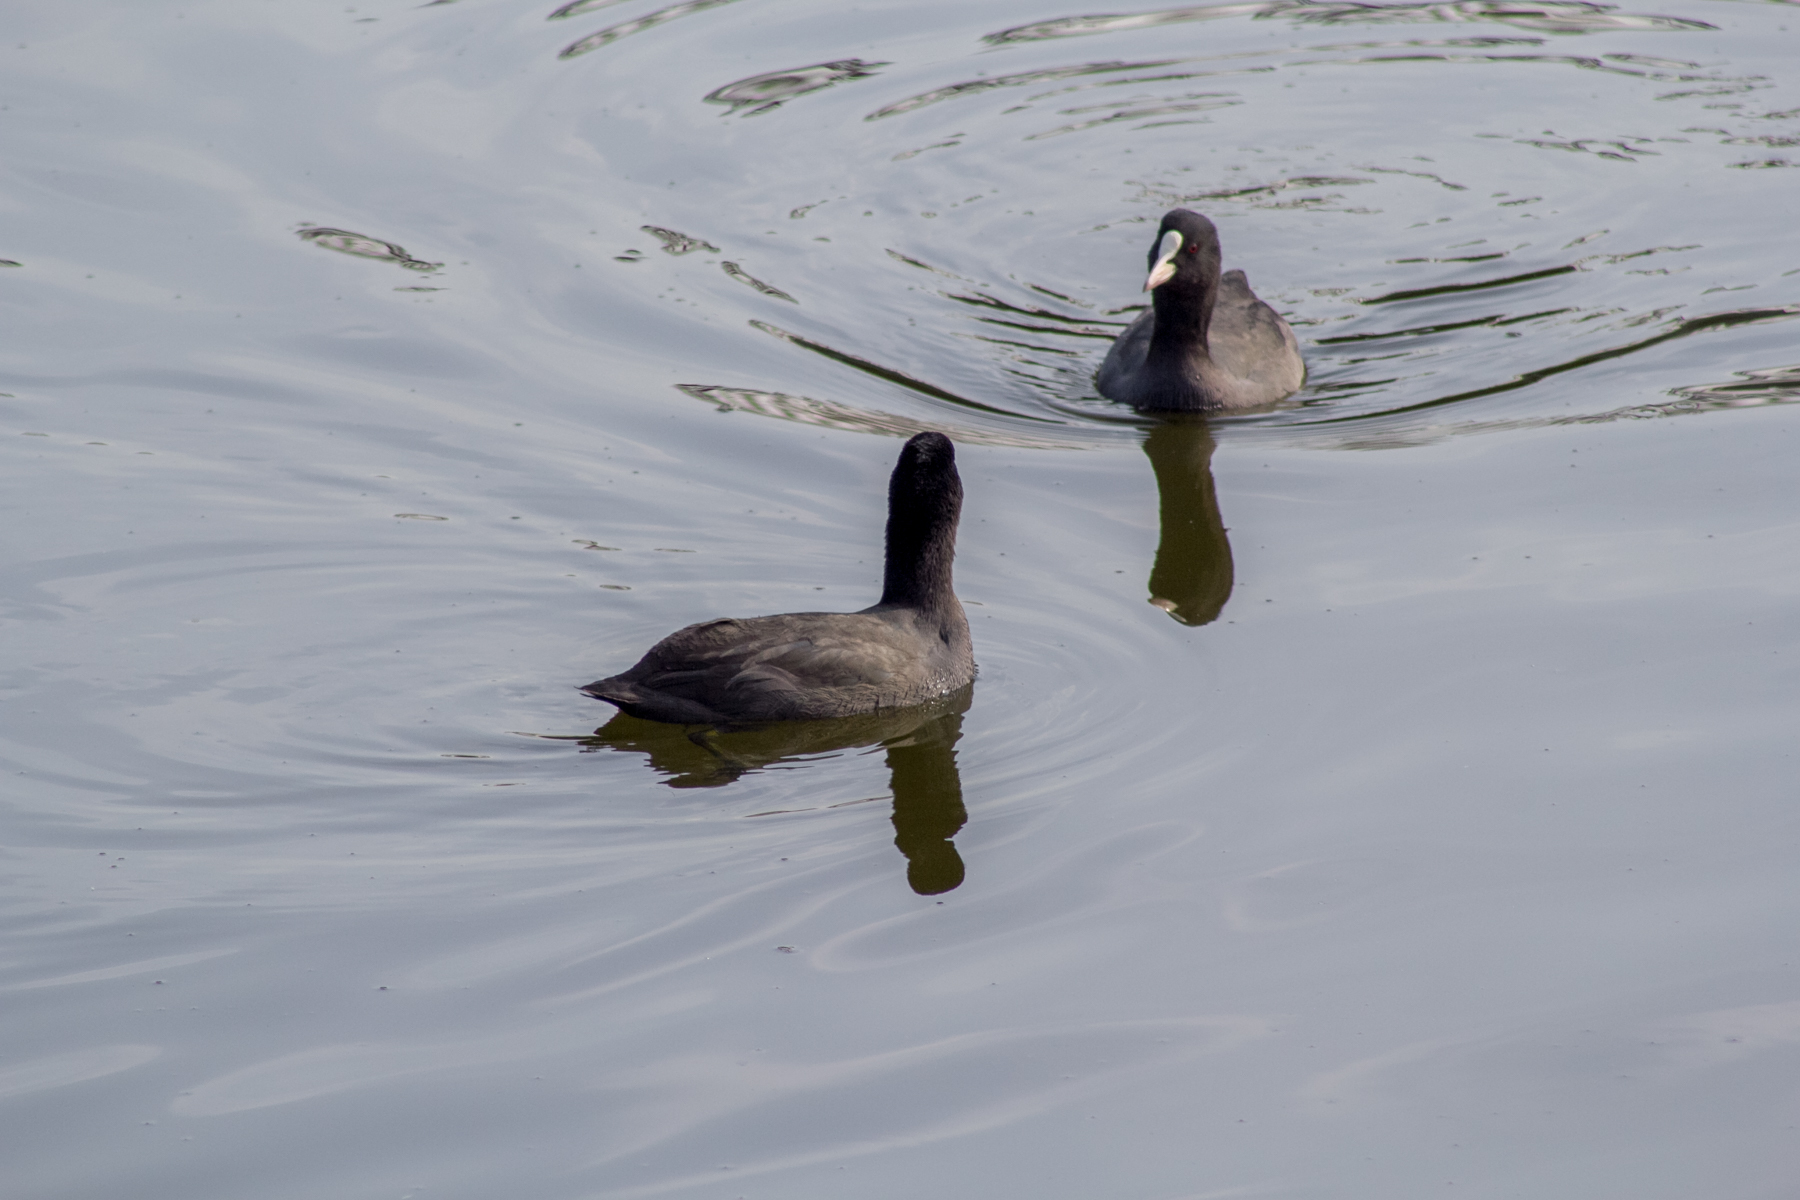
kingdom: Animalia
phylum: Chordata
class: Aves
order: Gruiformes
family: Rallidae
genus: Fulica
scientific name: Fulica atra
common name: Eurasian coot
